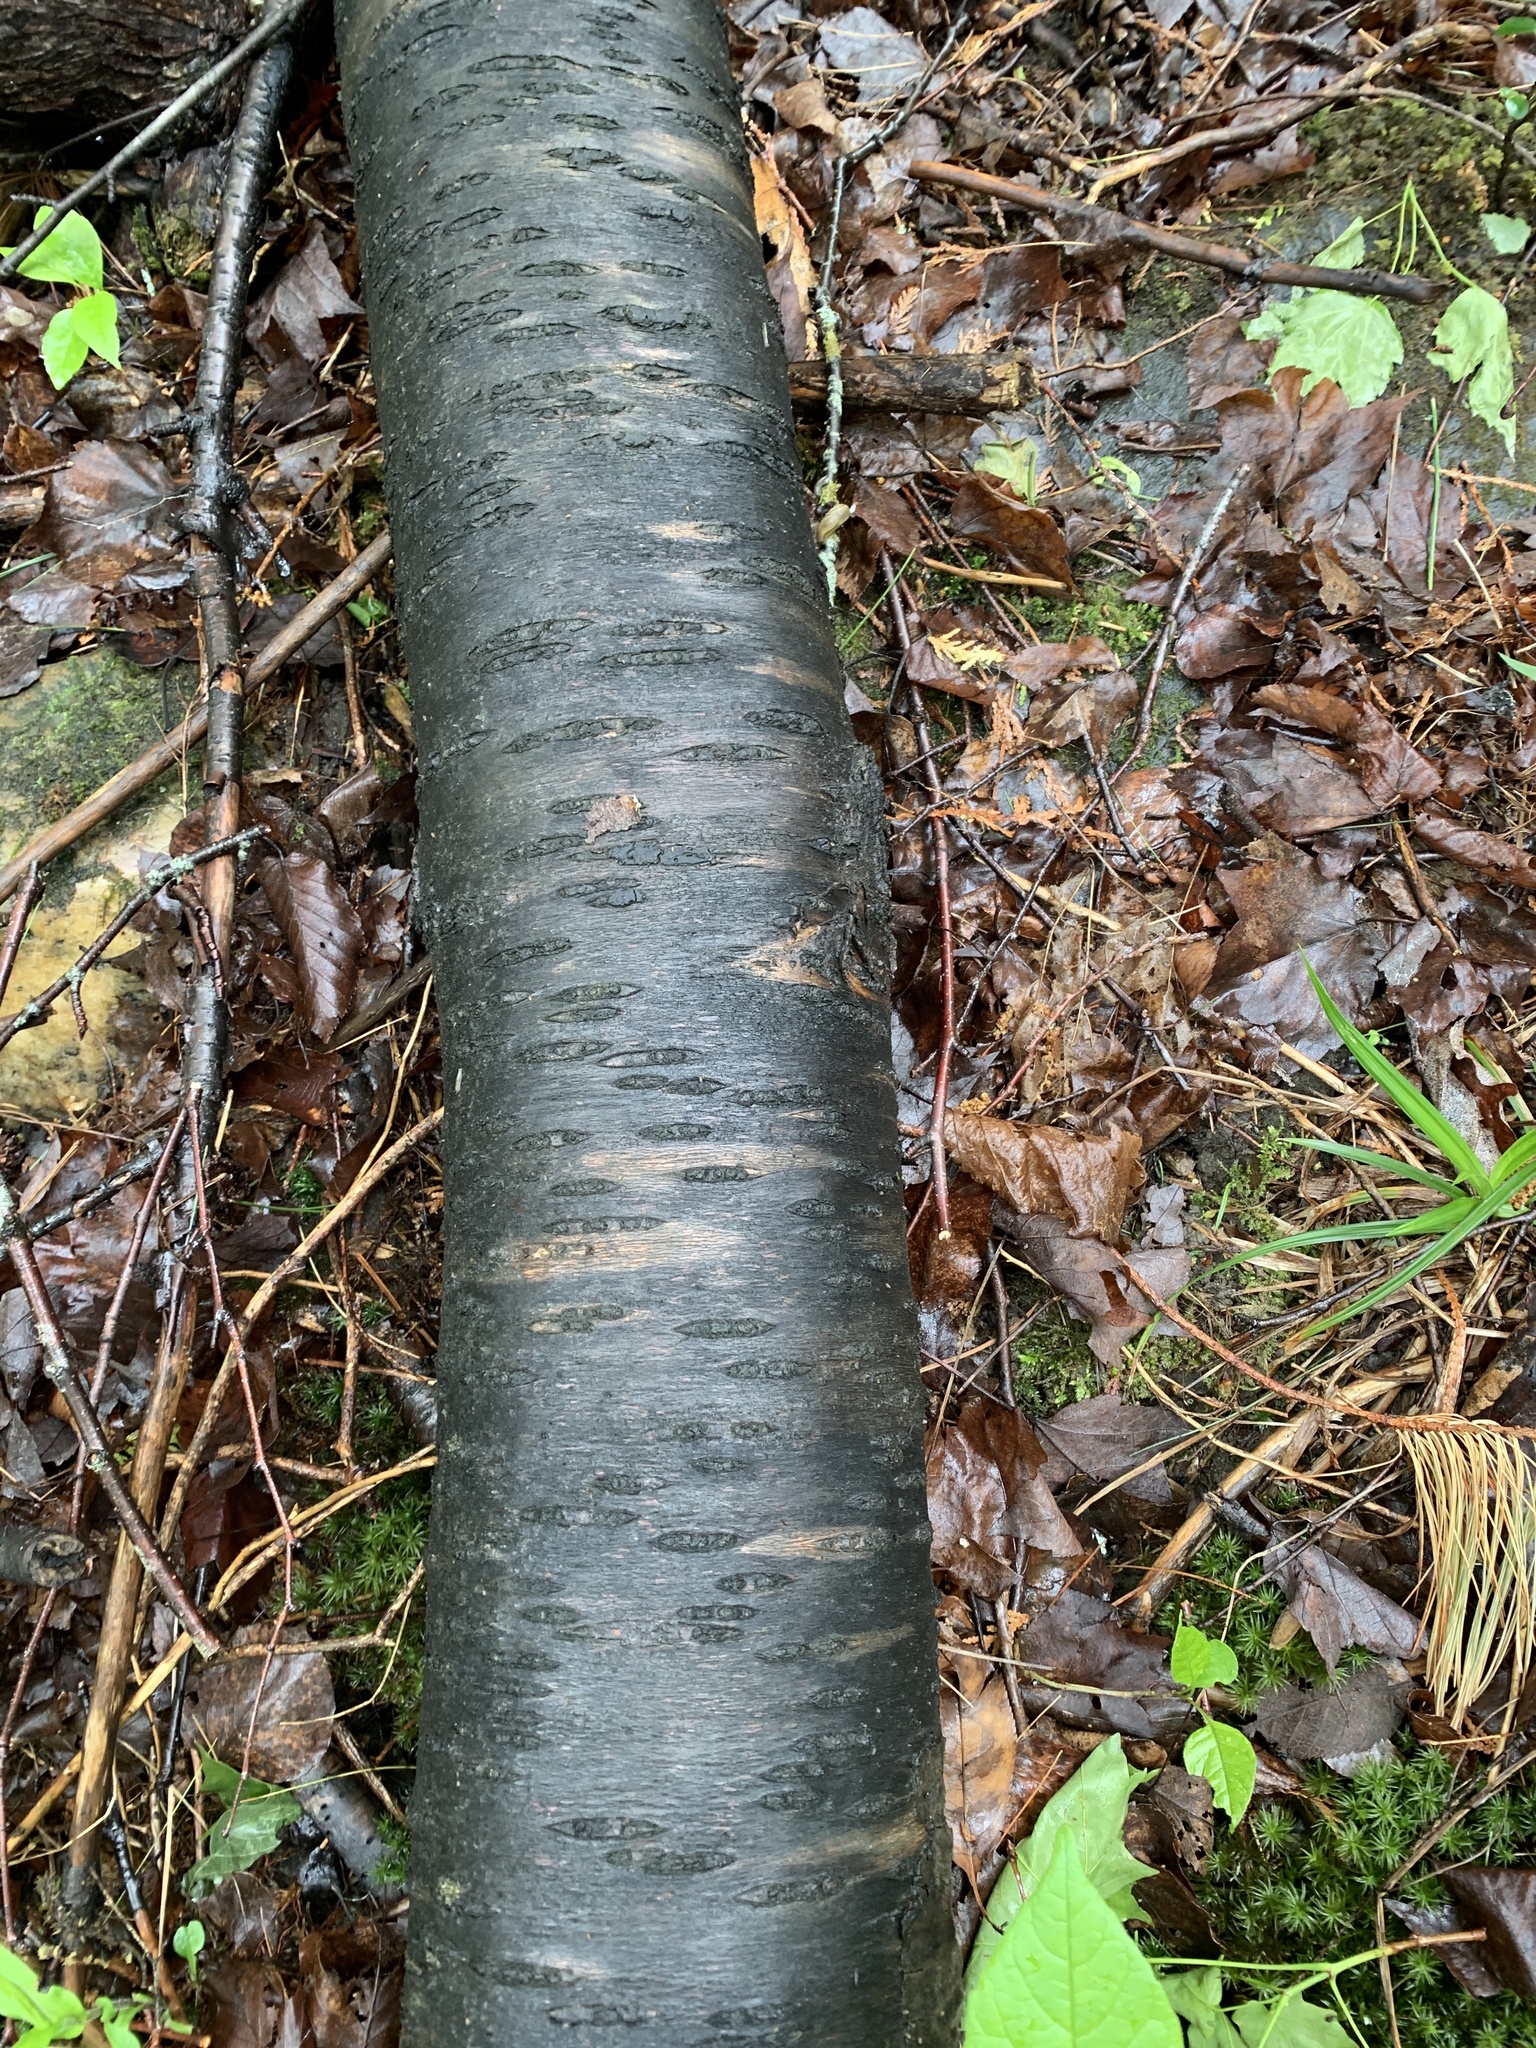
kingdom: Plantae
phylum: Tracheophyta
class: Magnoliopsida
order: Rosales
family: Rosaceae
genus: Prunus
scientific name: Prunus pensylvanica
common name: Pin cherry
